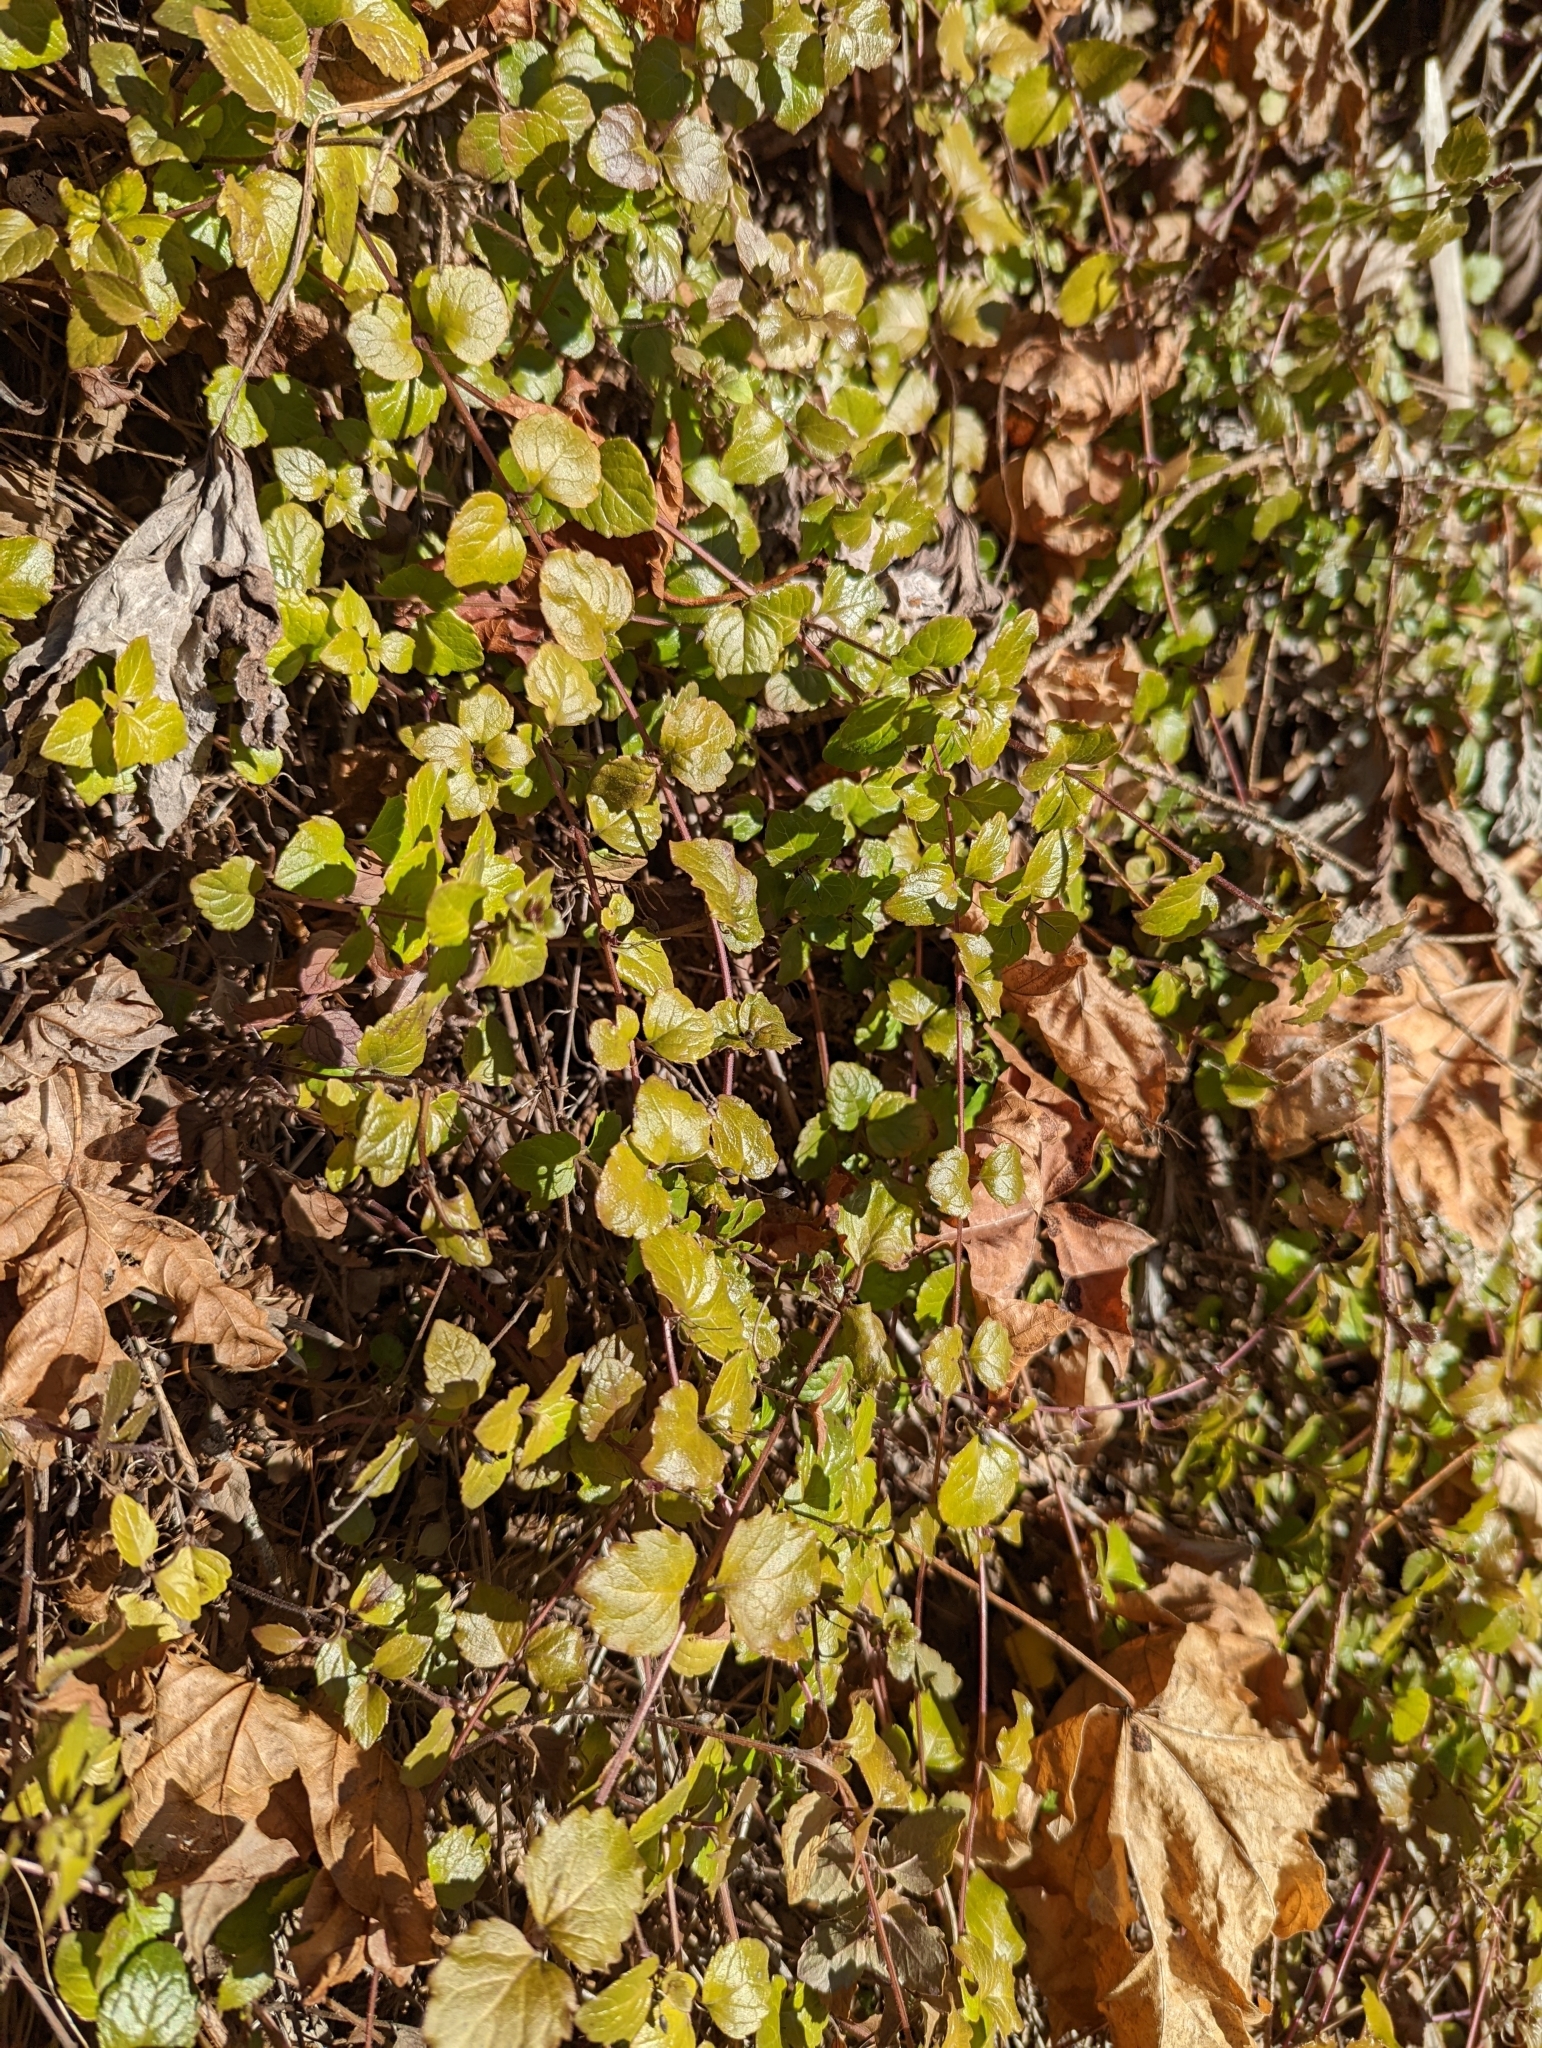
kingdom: Plantae
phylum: Tracheophyta
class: Magnoliopsida
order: Lamiales
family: Lamiaceae
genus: Micromeria
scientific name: Micromeria douglasii
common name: Yerba buena
